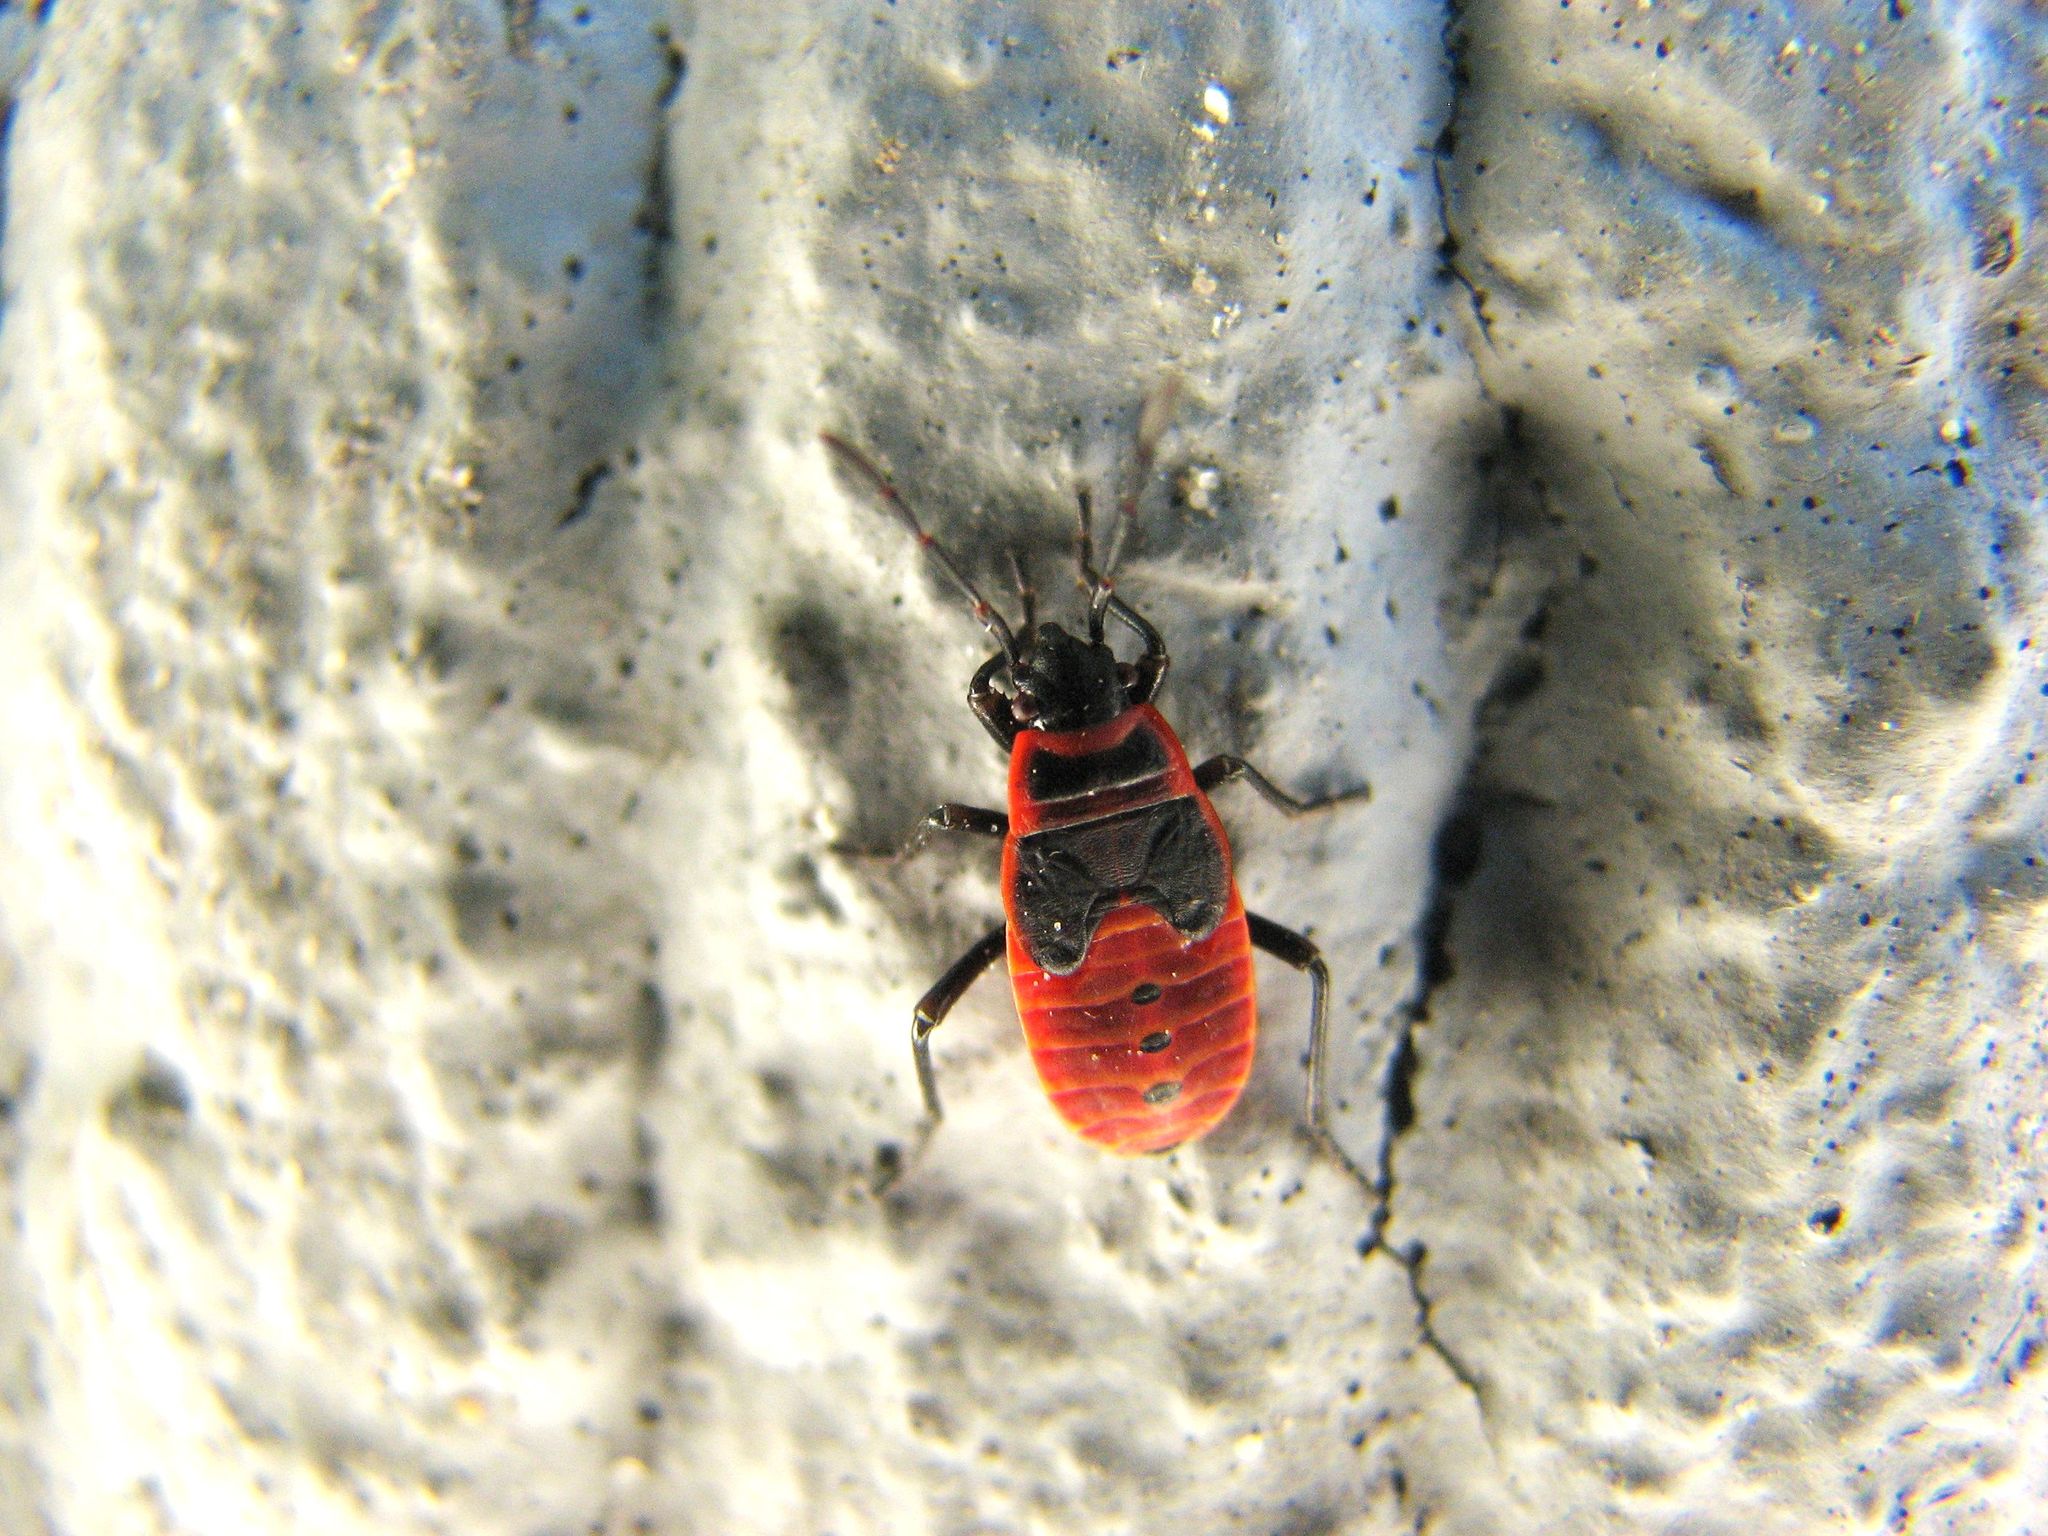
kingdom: Animalia
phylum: Arthropoda
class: Insecta
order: Hemiptera
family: Pyrrhocoridae
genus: Pyrrhocoris
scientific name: Pyrrhocoris apterus
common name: Firebug
